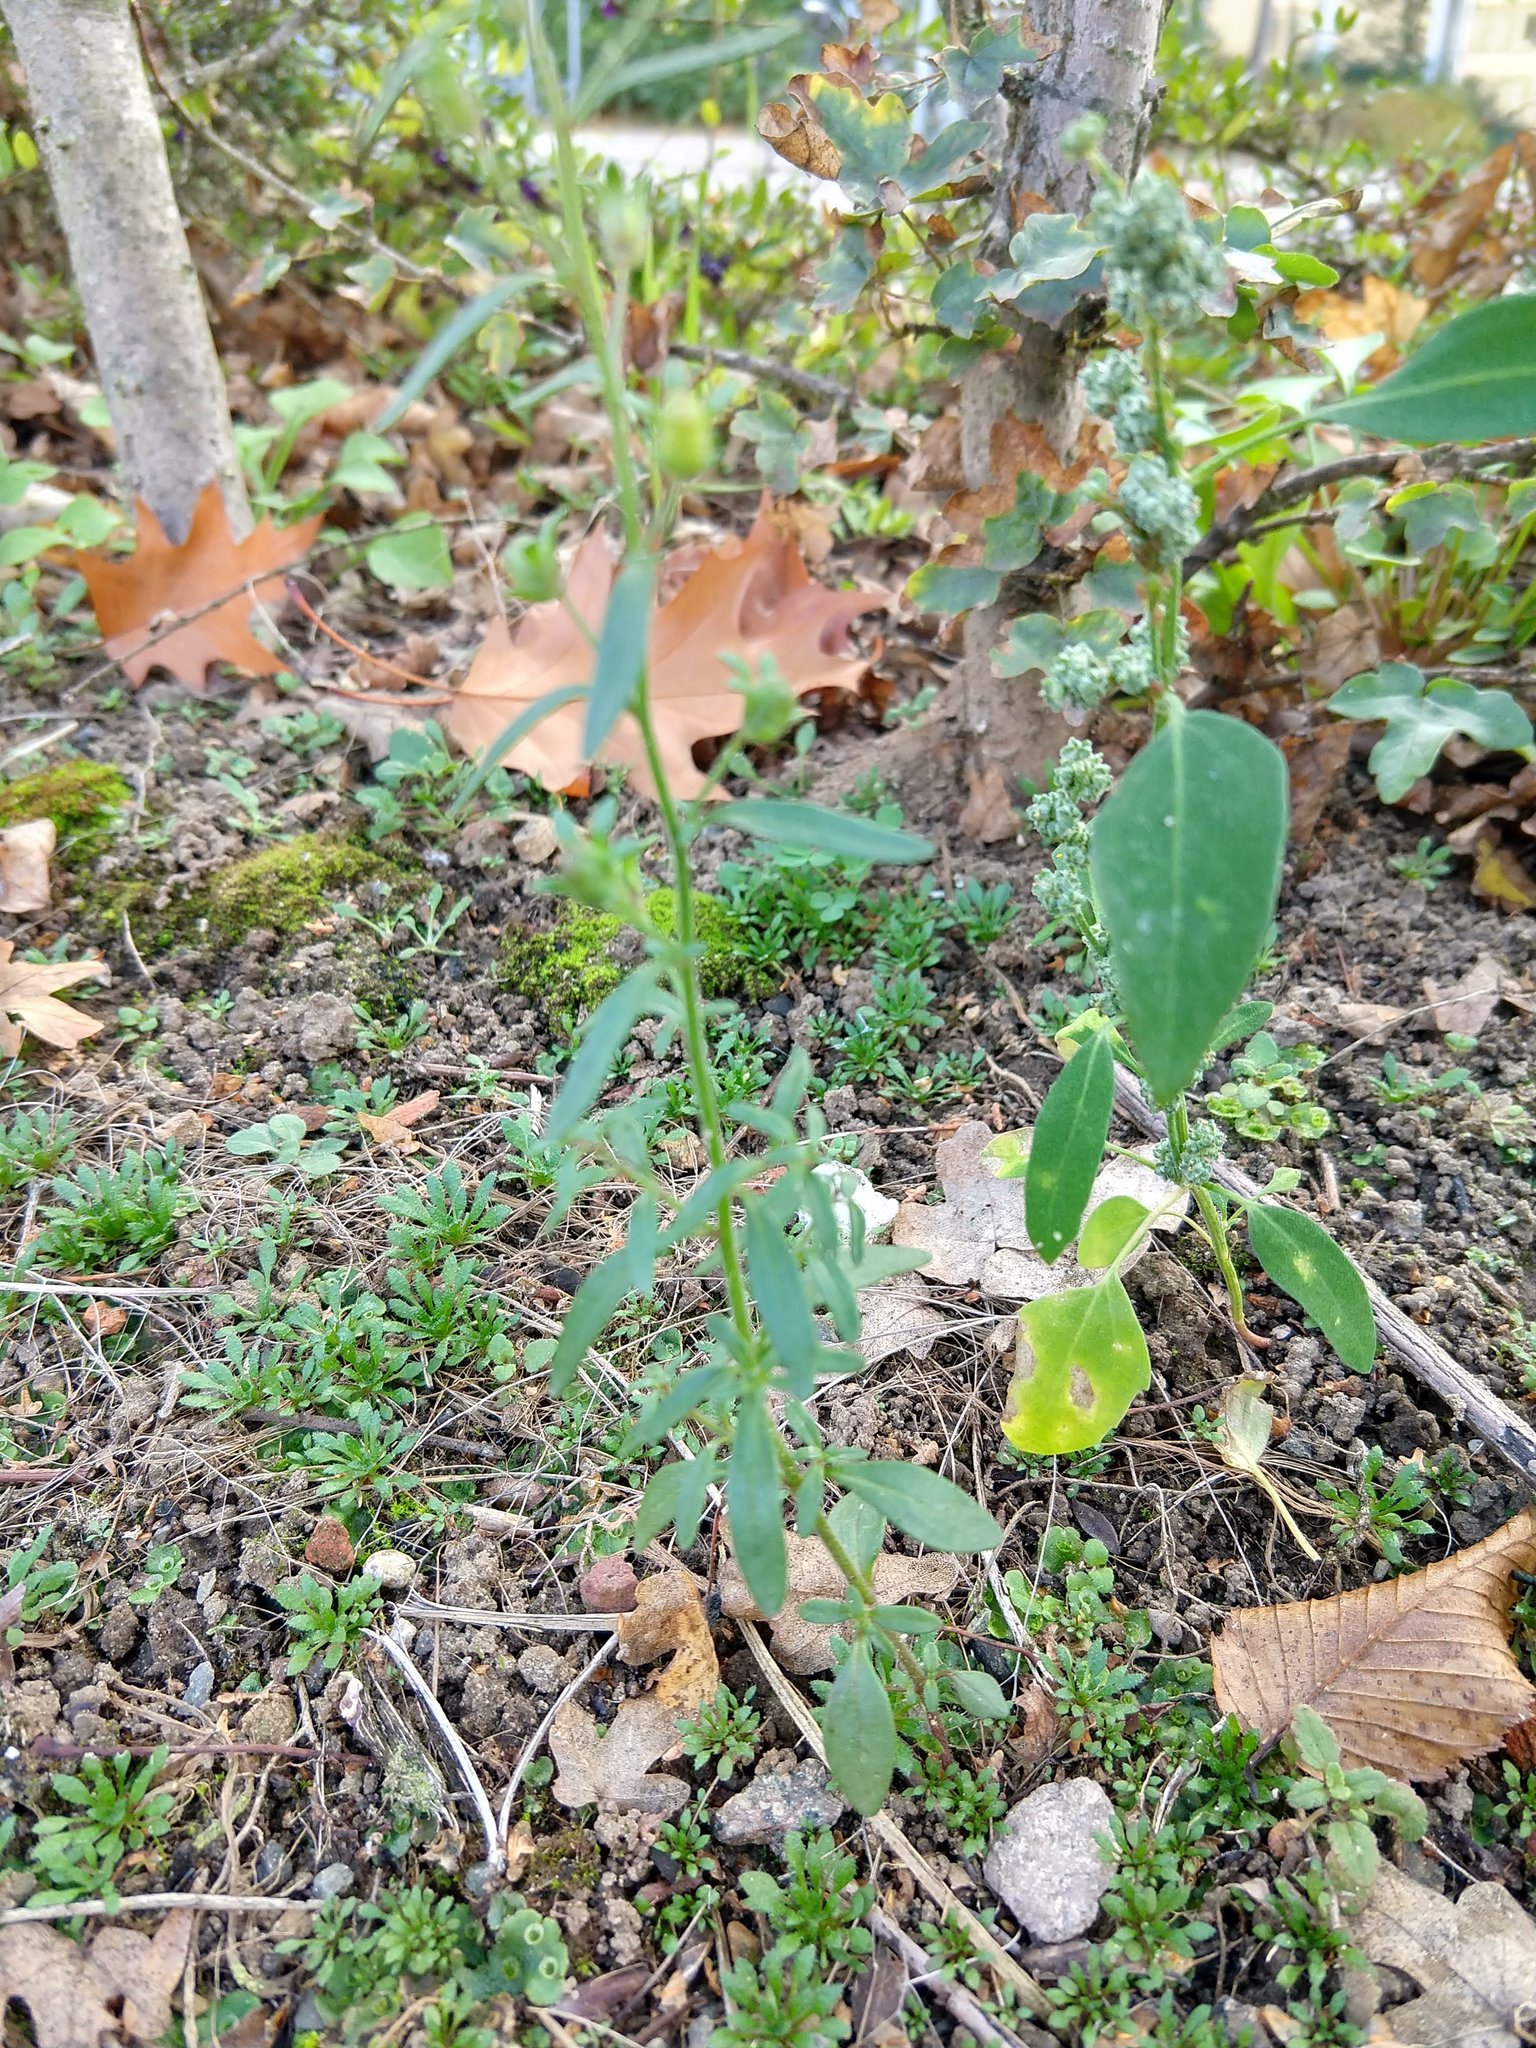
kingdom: Plantae
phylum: Tracheophyta
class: Magnoliopsida
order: Lamiales
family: Plantaginaceae
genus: Chaenorhinum
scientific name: Chaenorhinum minus
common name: Dwarf snapdragon
